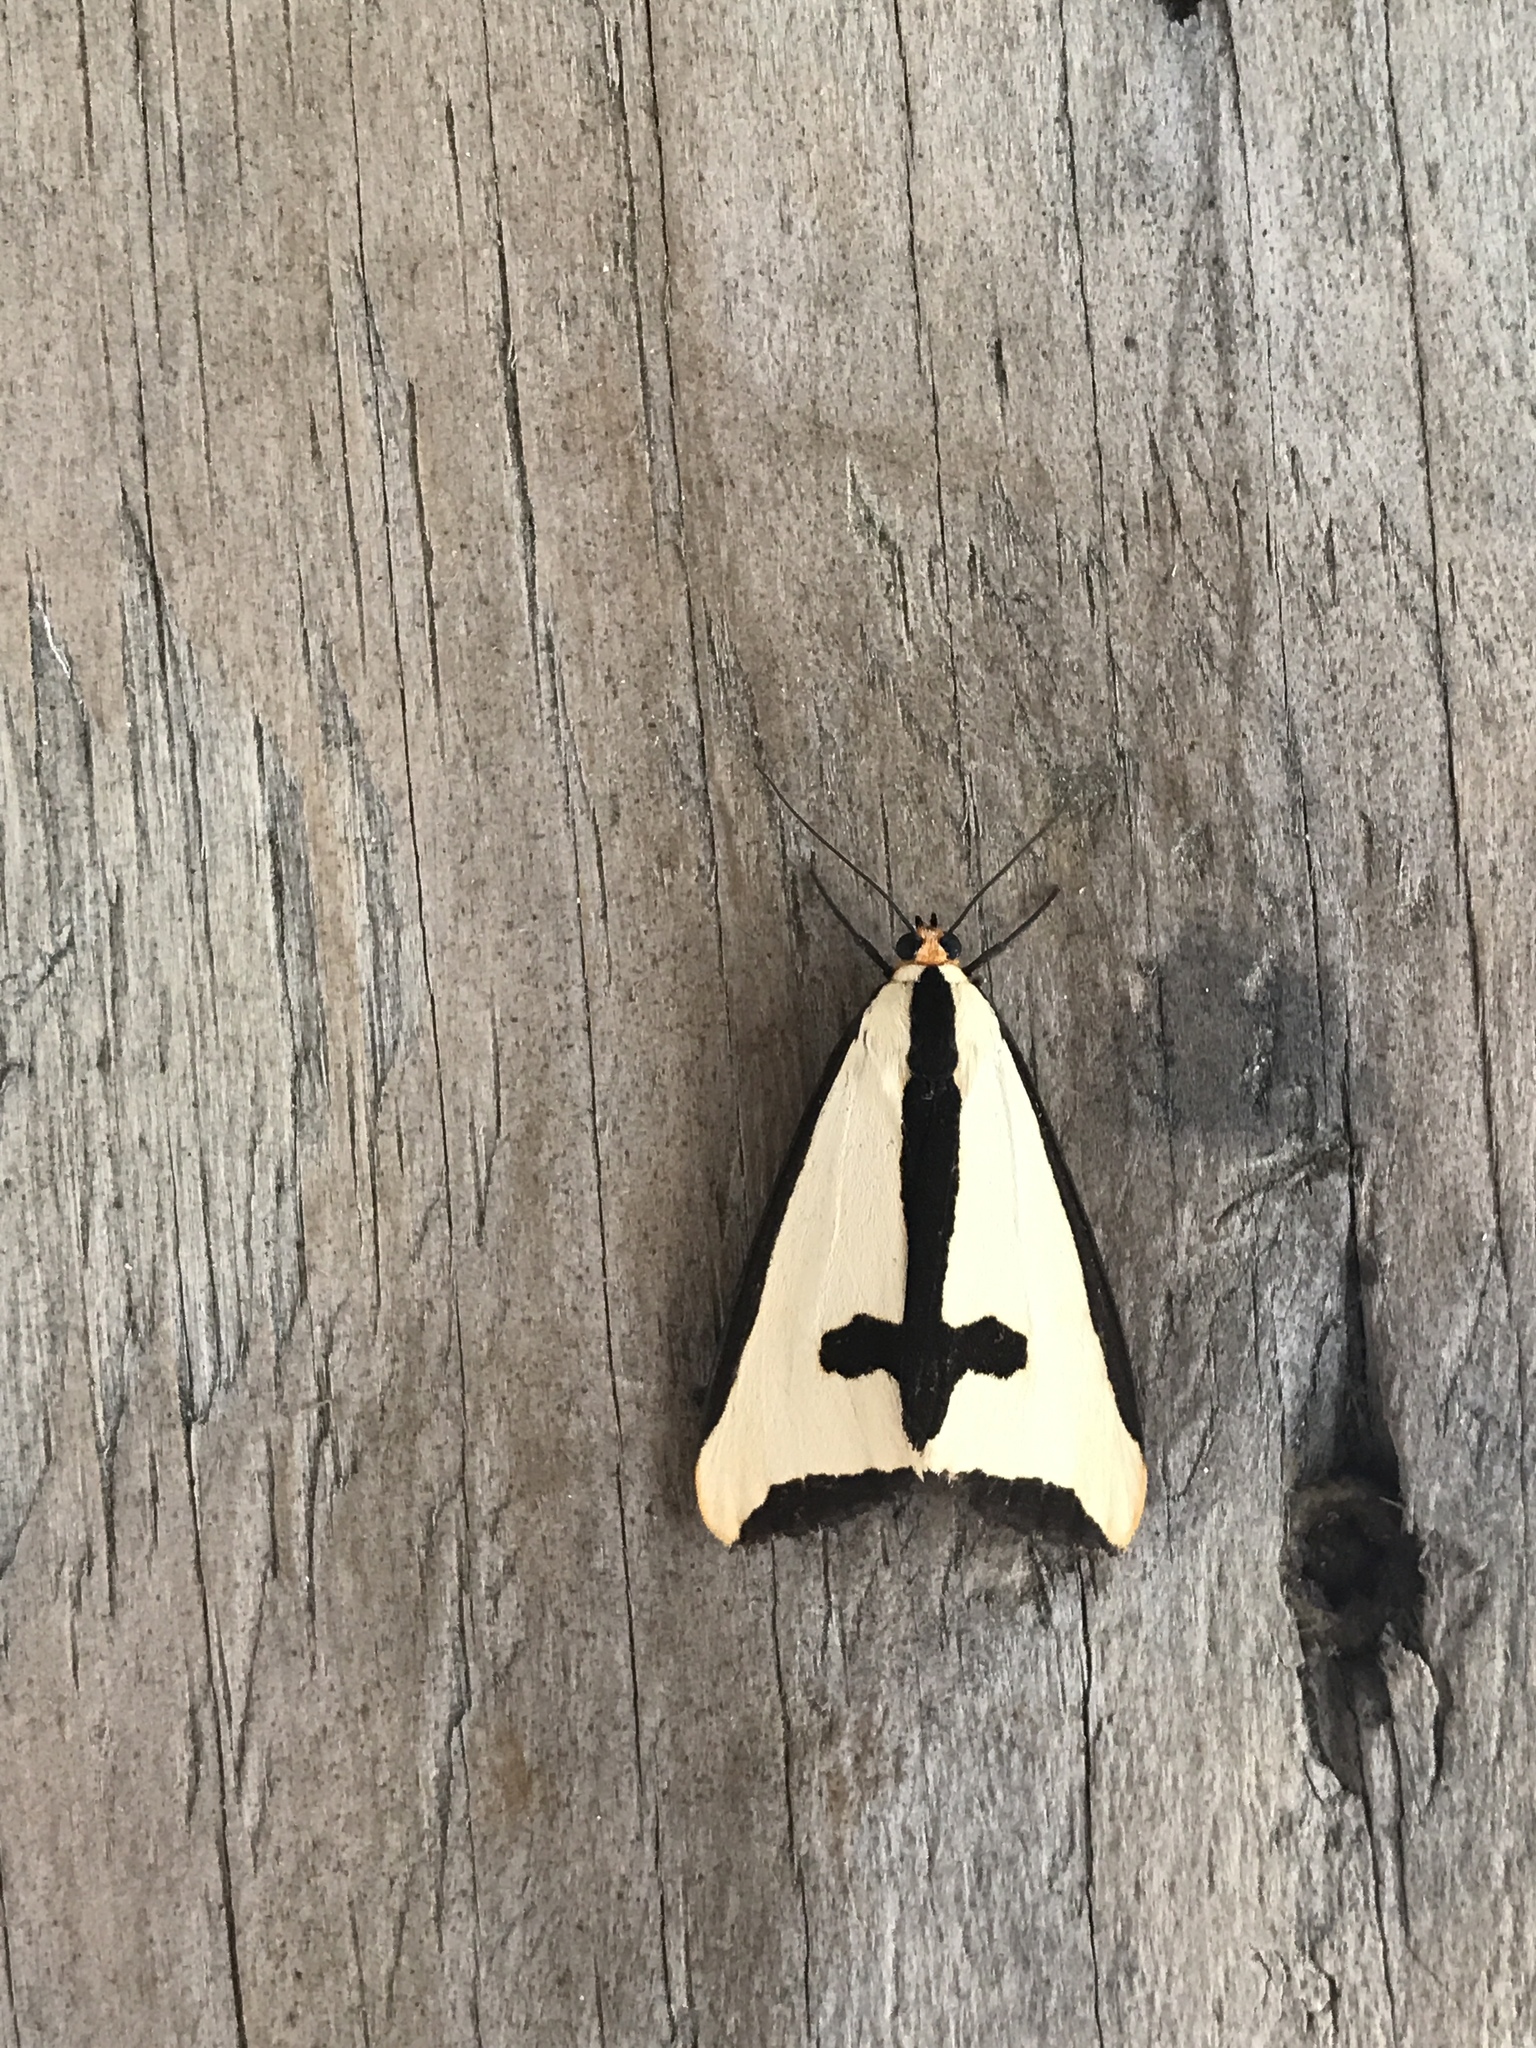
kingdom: Animalia
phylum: Arthropoda
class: Insecta
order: Lepidoptera
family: Erebidae
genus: Haploa
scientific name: Haploa clymene
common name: Clymene moth
